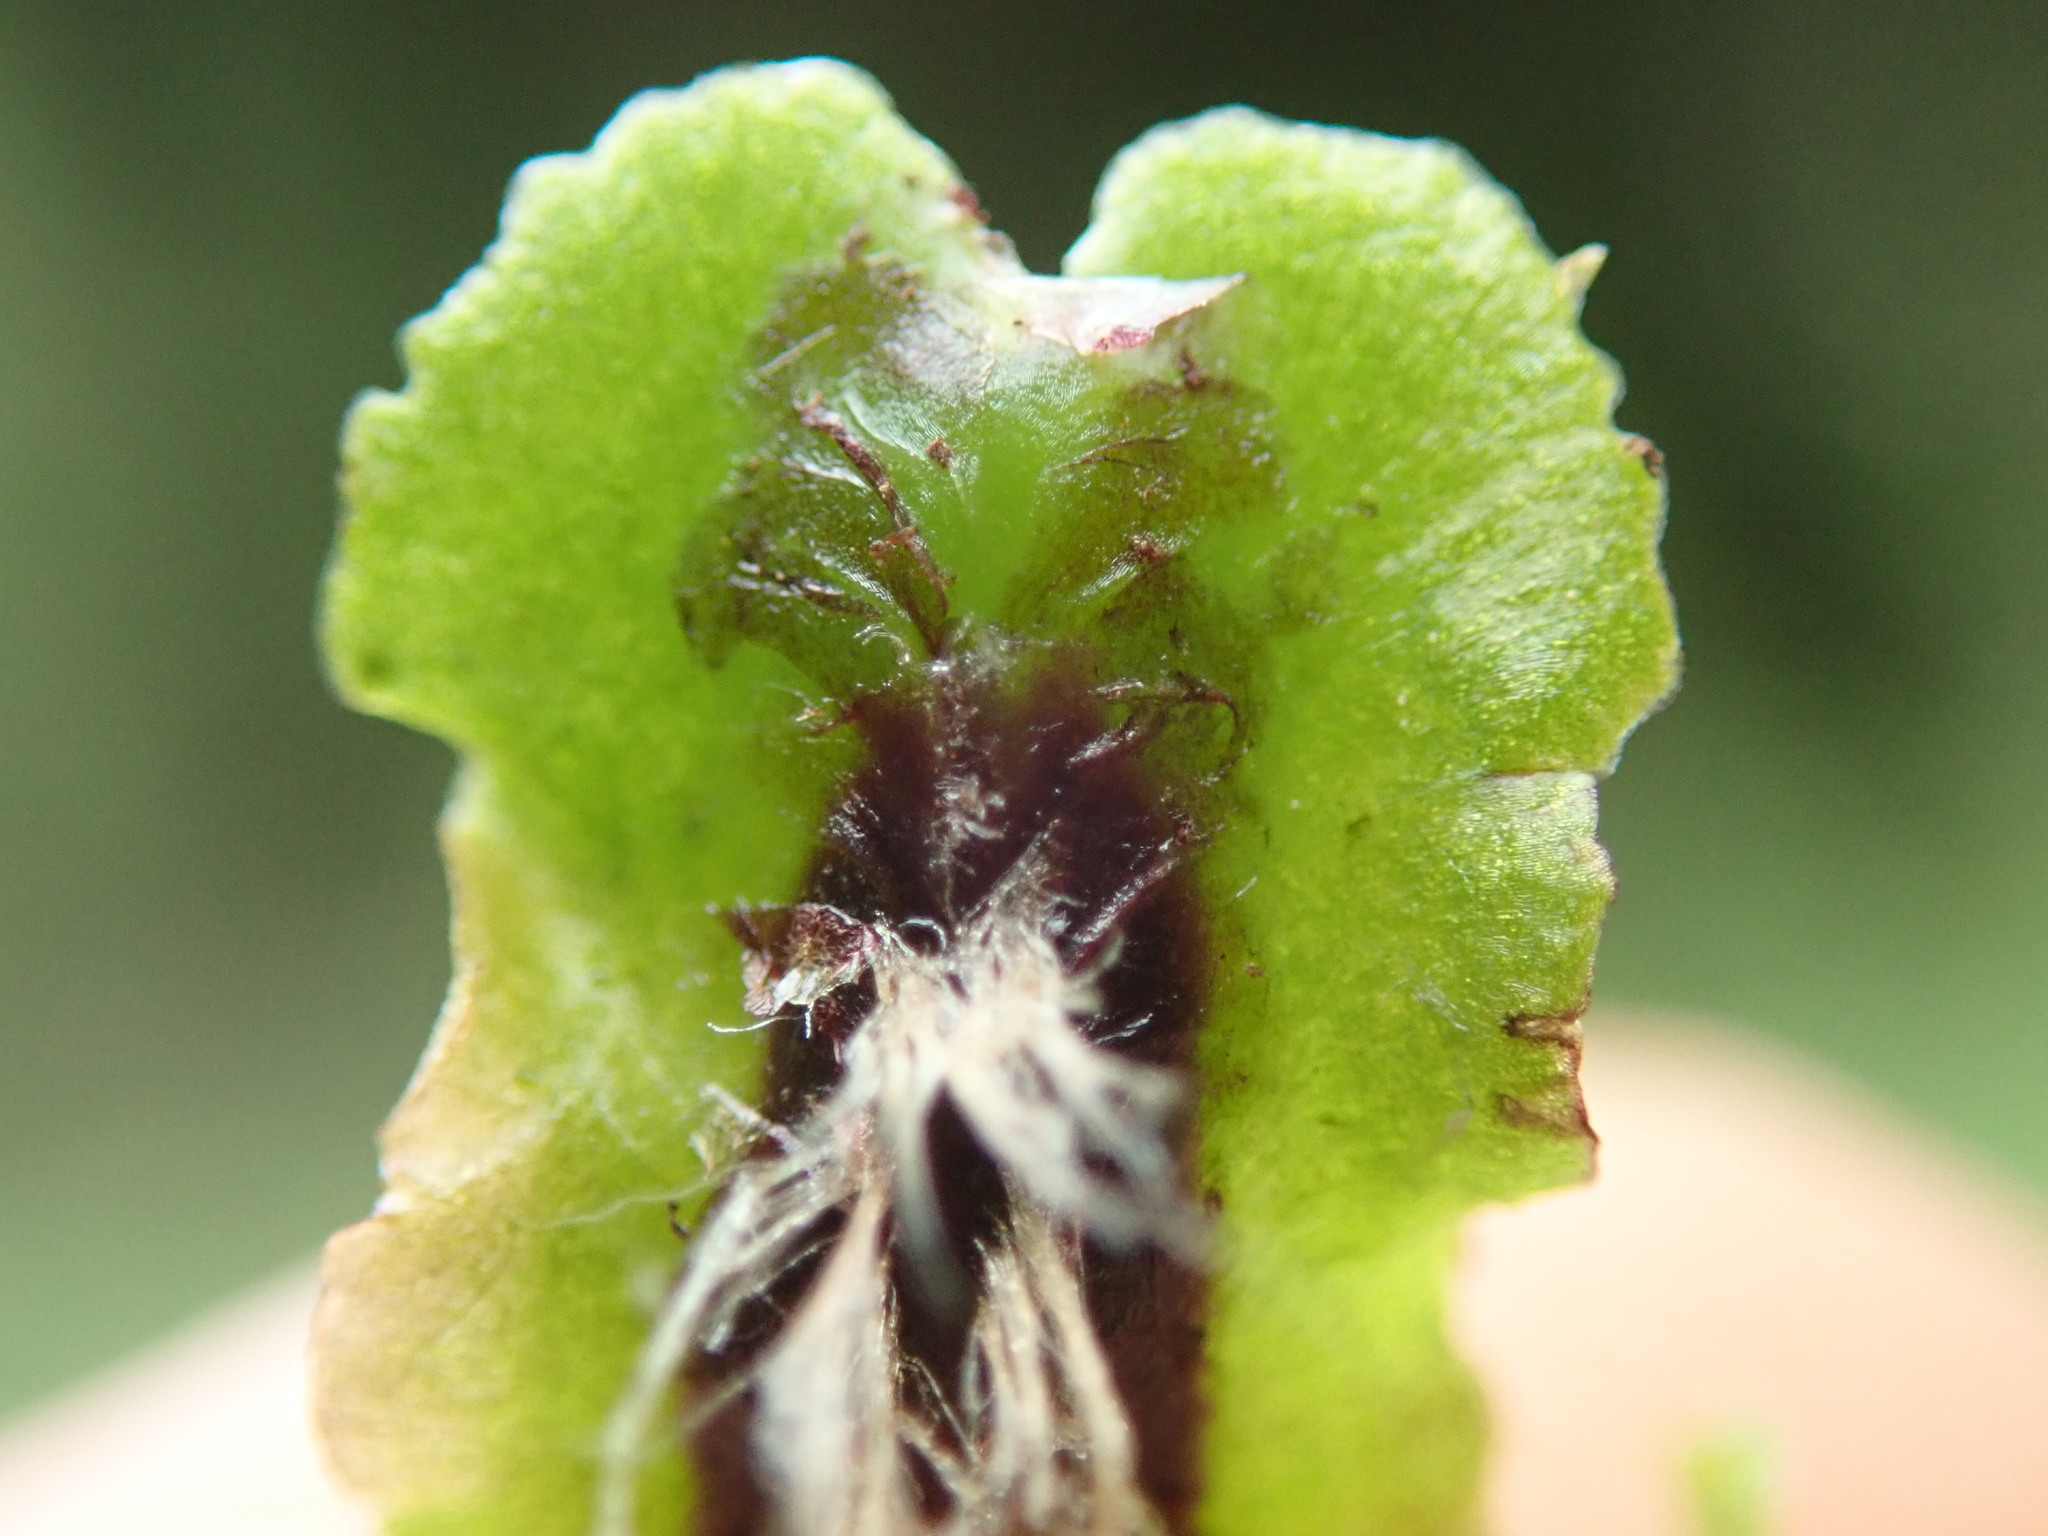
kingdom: Plantae
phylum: Marchantiophyta
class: Marchantiopsida
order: Marchantiales
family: Marchantiaceae
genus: Marchantia
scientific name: Marchantia quadrata
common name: Narrow mushroom-headed liverwort
